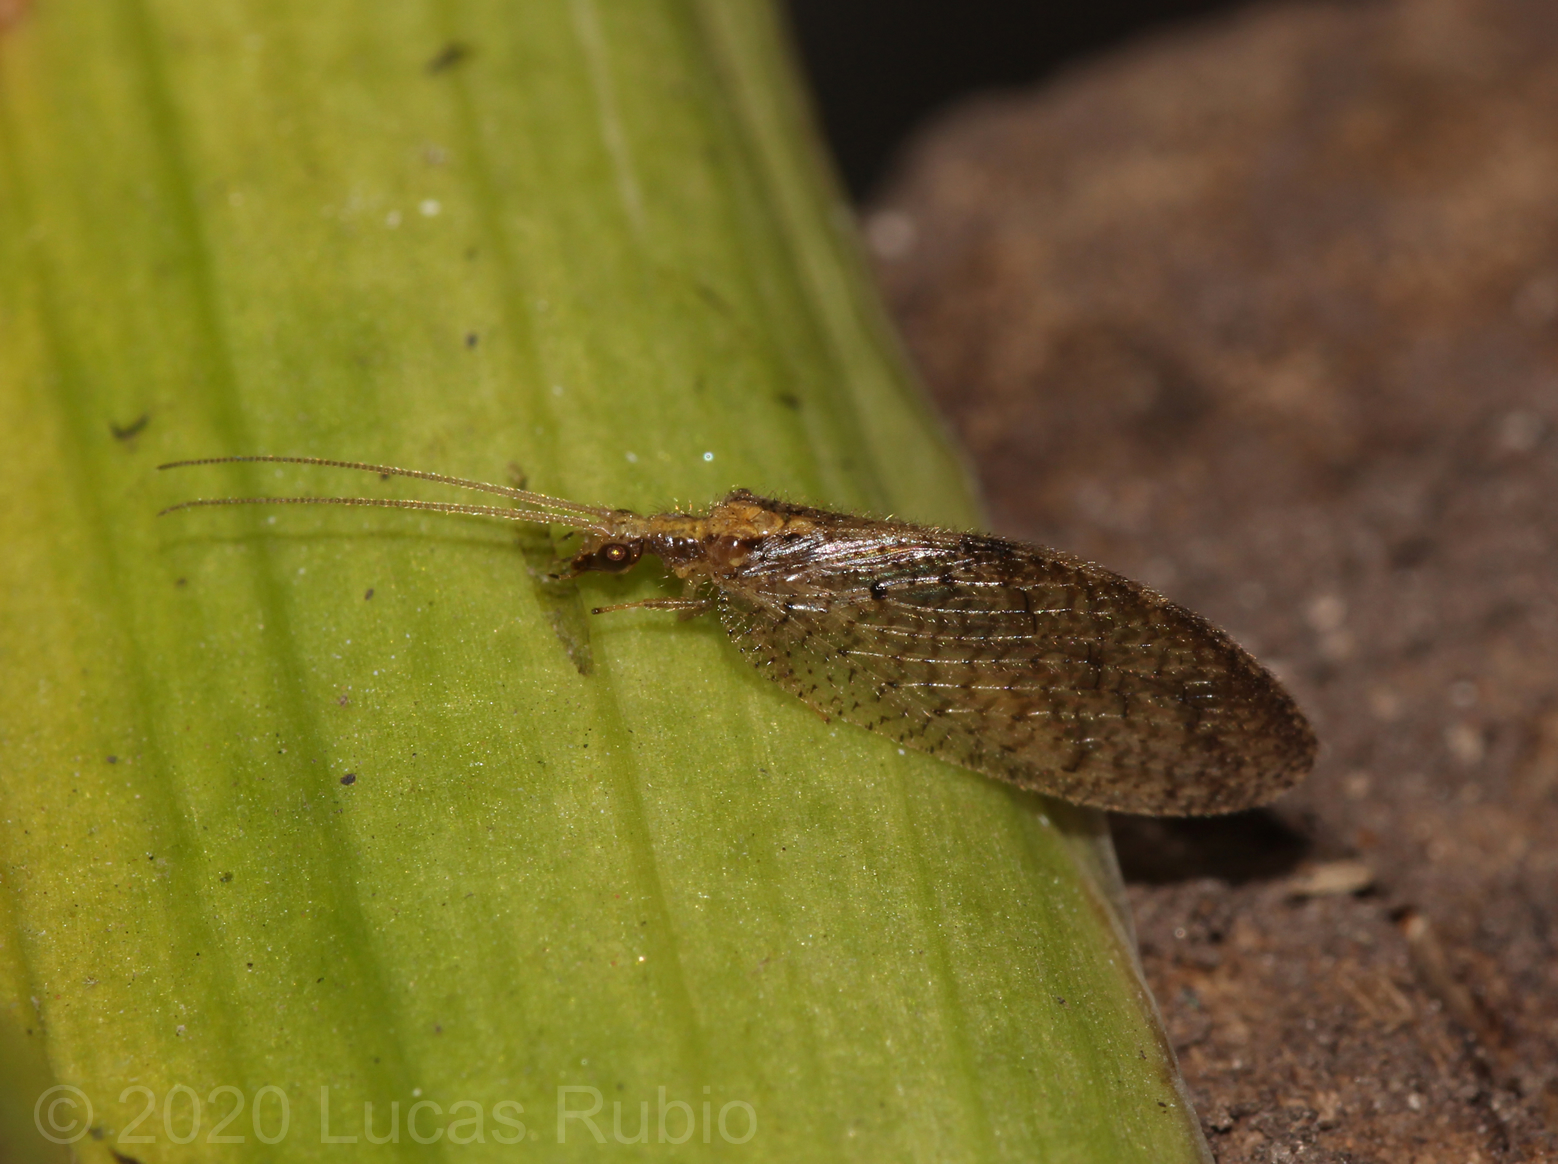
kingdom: Animalia
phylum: Arthropoda
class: Insecta
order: Neuroptera
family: Hemerobiidae
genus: Hemerobius
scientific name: Hemerobius bolivari
